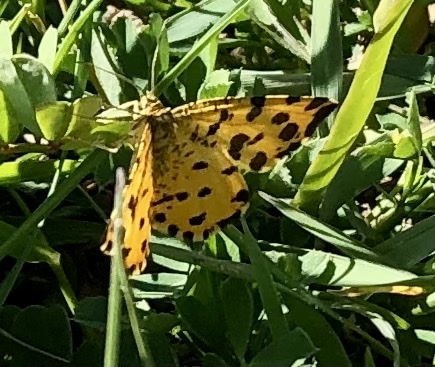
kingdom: Animalia
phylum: Arthropoda
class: Insecta
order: Lepidoptera
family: Geometridae
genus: Pseudopanthera
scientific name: Pseudopanthera macularia
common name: Speckled yellow
